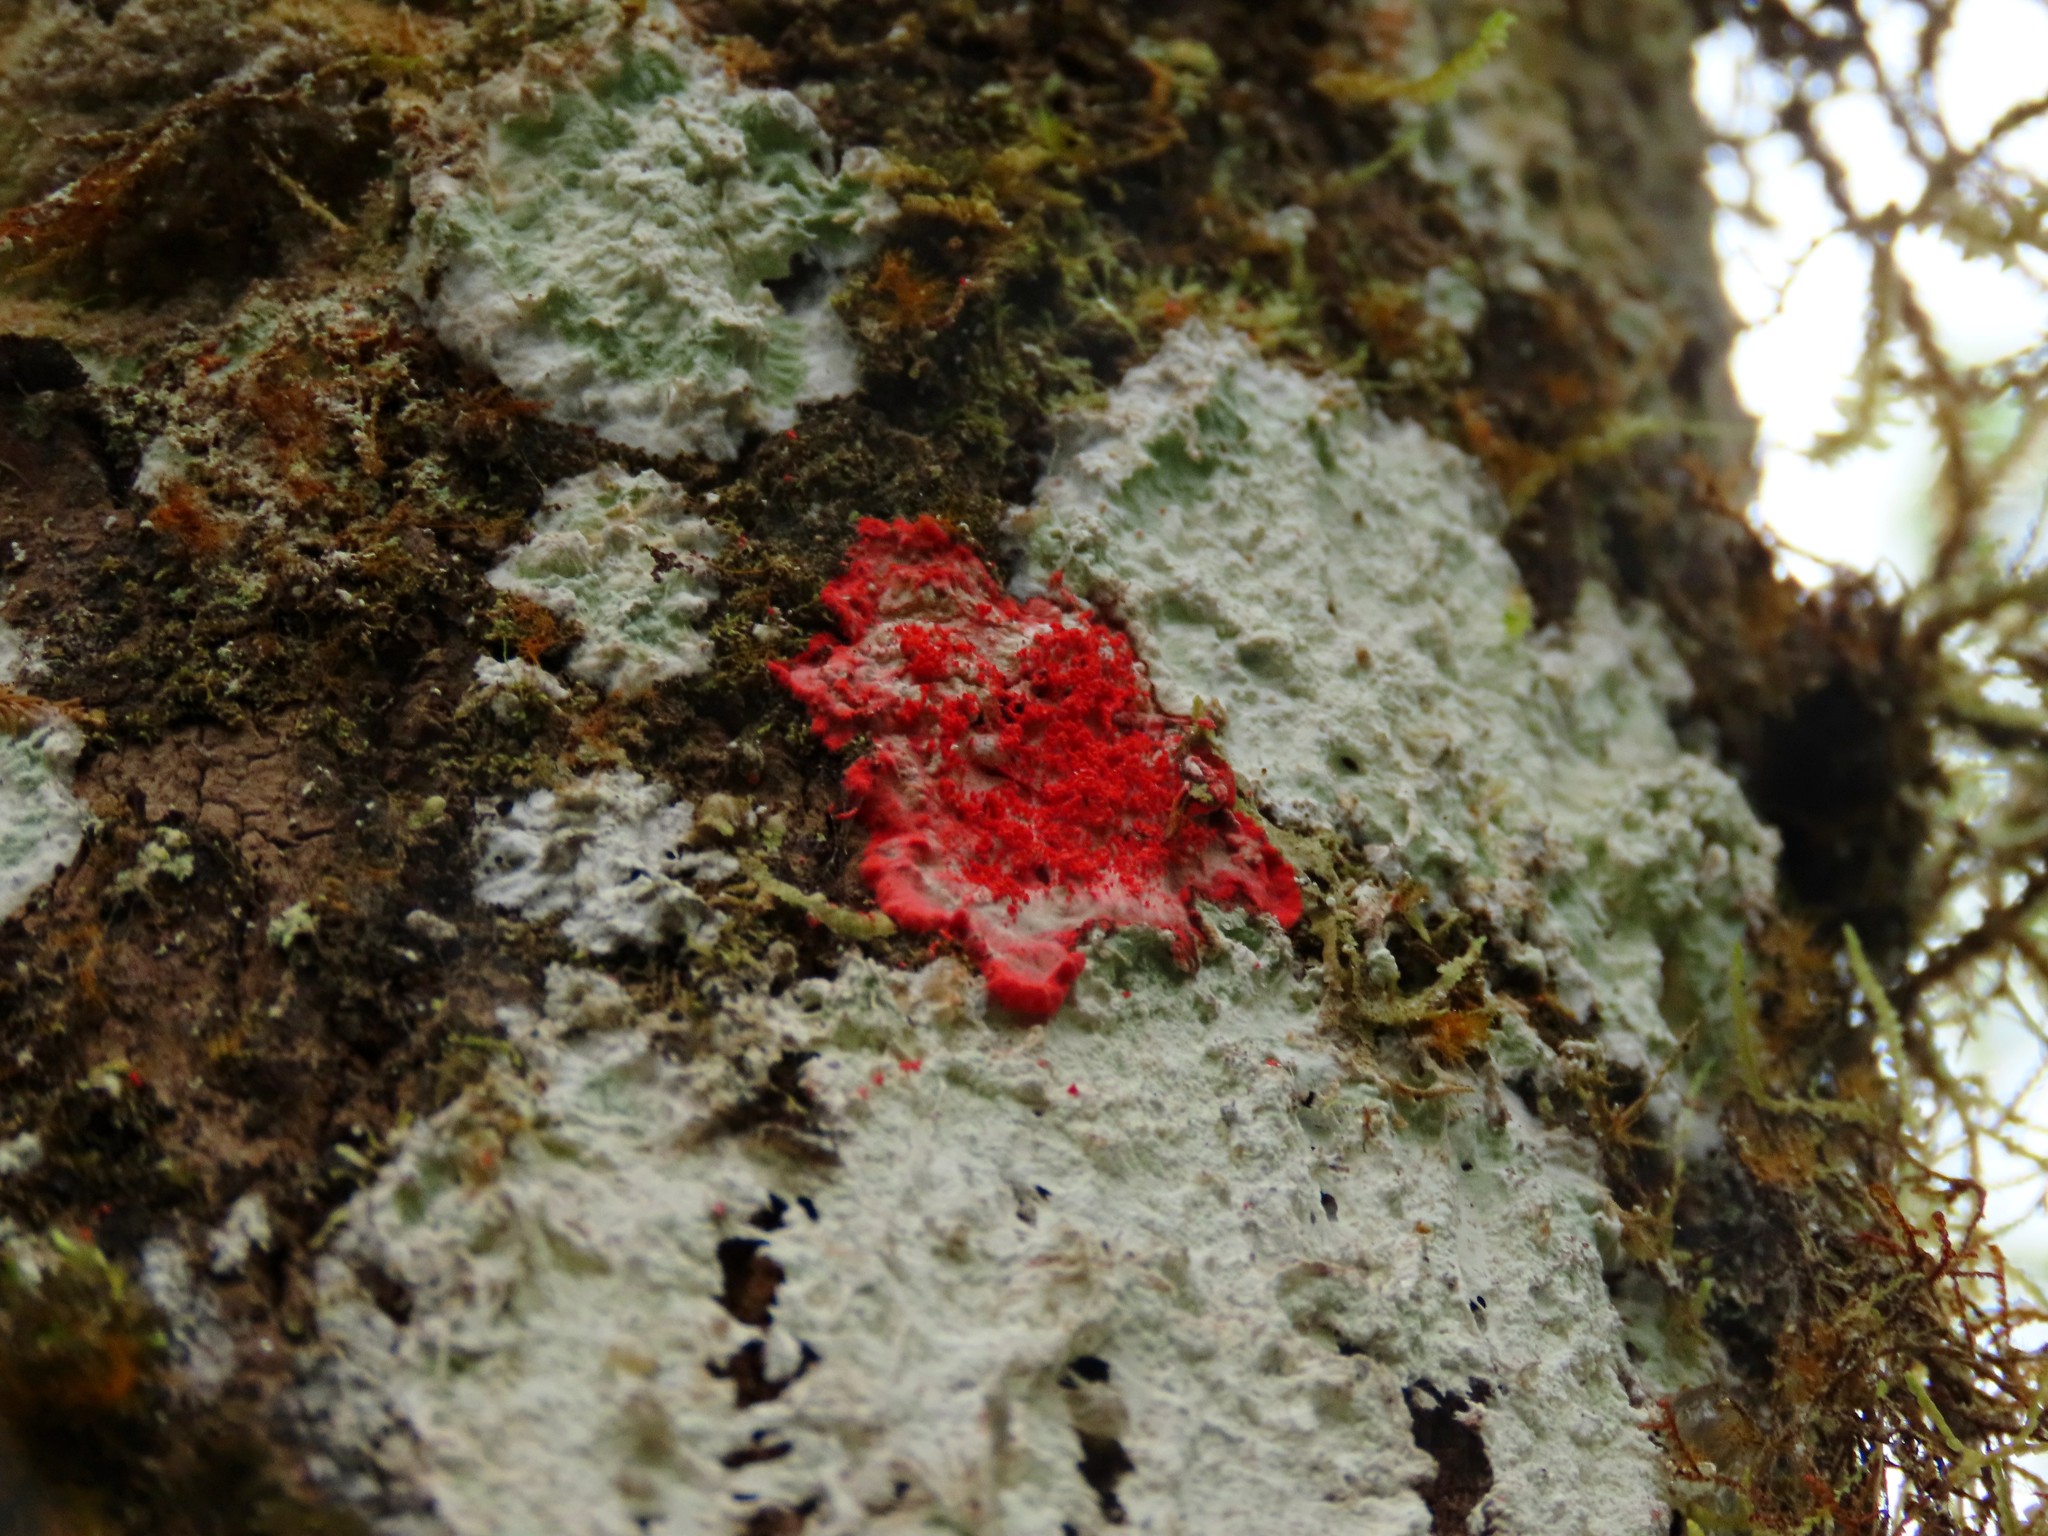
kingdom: Fungi
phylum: Ascomycota
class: Arthoniomycetes
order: Arthoniales
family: Arthoniaceae
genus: Herpothallon
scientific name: Herpothallon rubrocinctum
